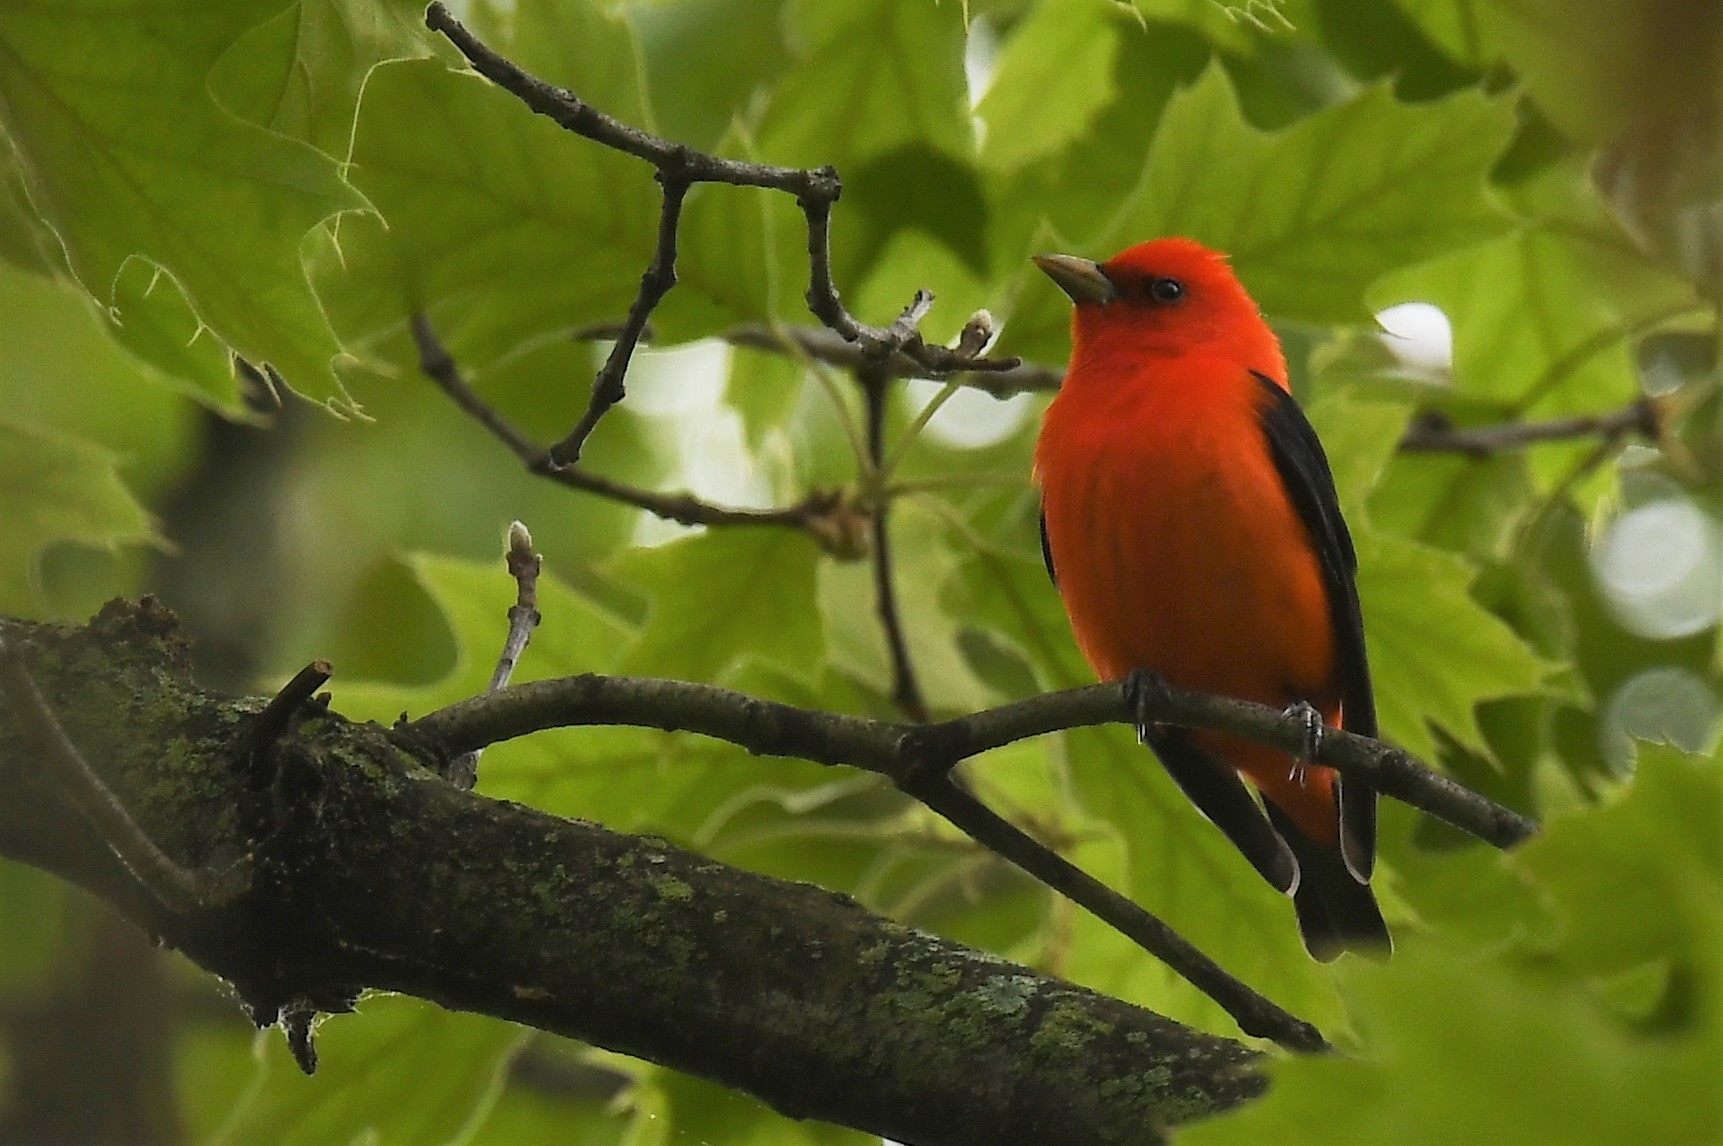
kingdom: Animalia
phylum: Chordata
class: Aves
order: Passeriformes
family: Cardinalidae
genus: Piranga
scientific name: Piranga olivacea
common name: Scarlet tanager
